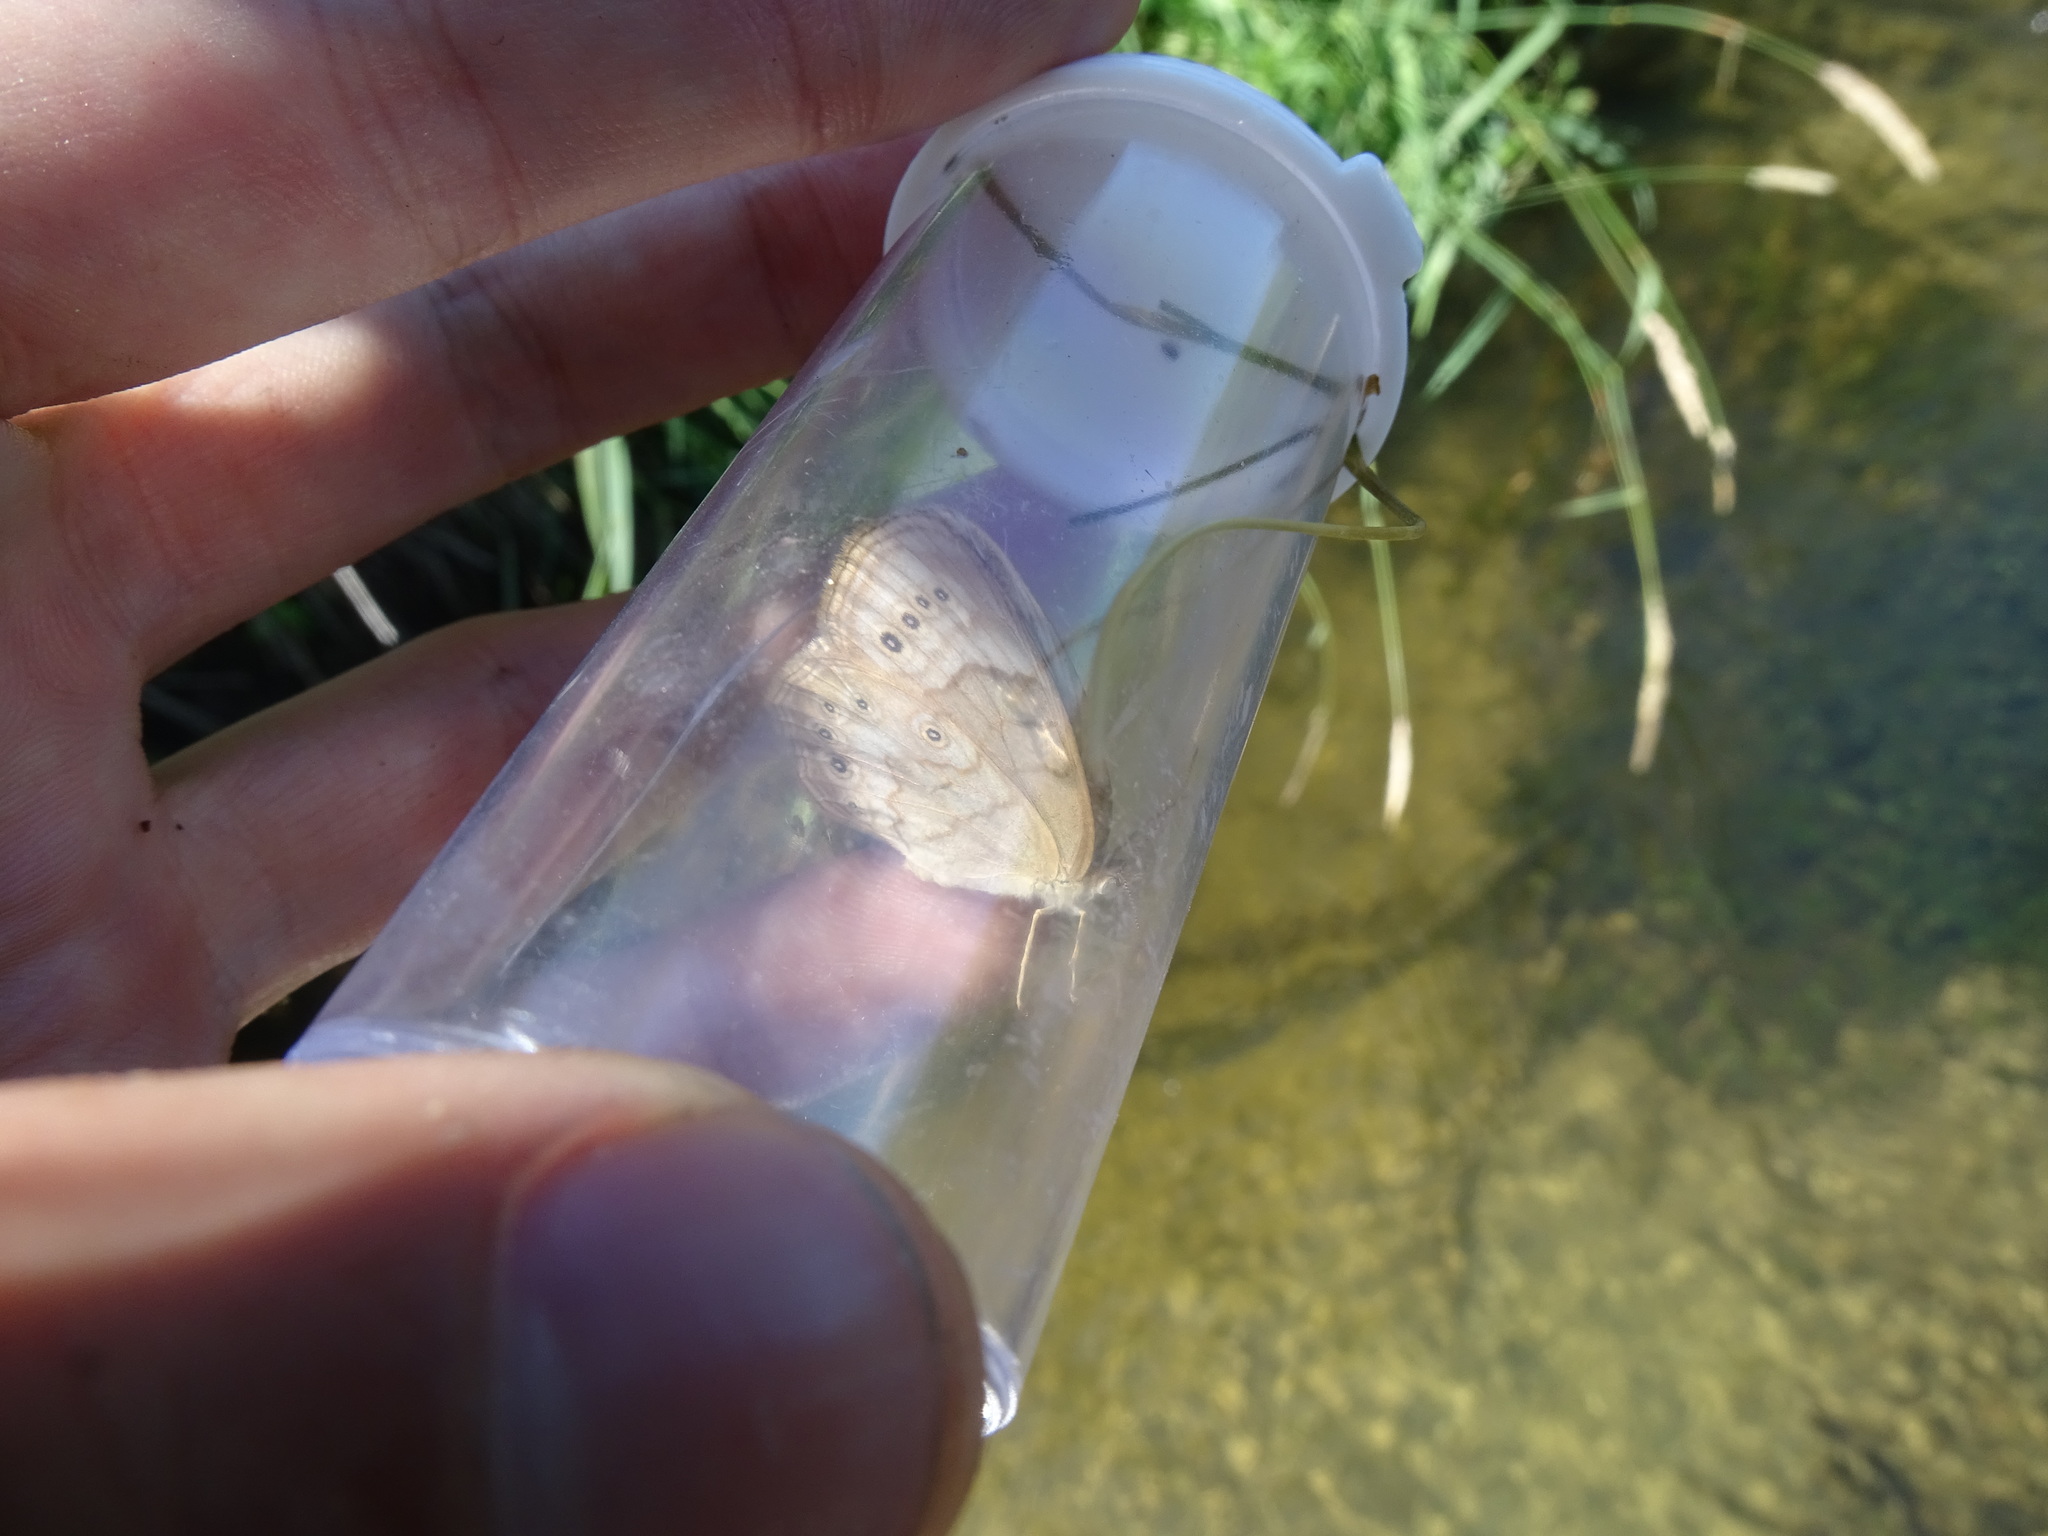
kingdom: Animalia
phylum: Arthropoda
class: Insecta
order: Lepidoptera
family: Nymphalidae
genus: Lethe
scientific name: Lethe eurydice
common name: Eyed brown
